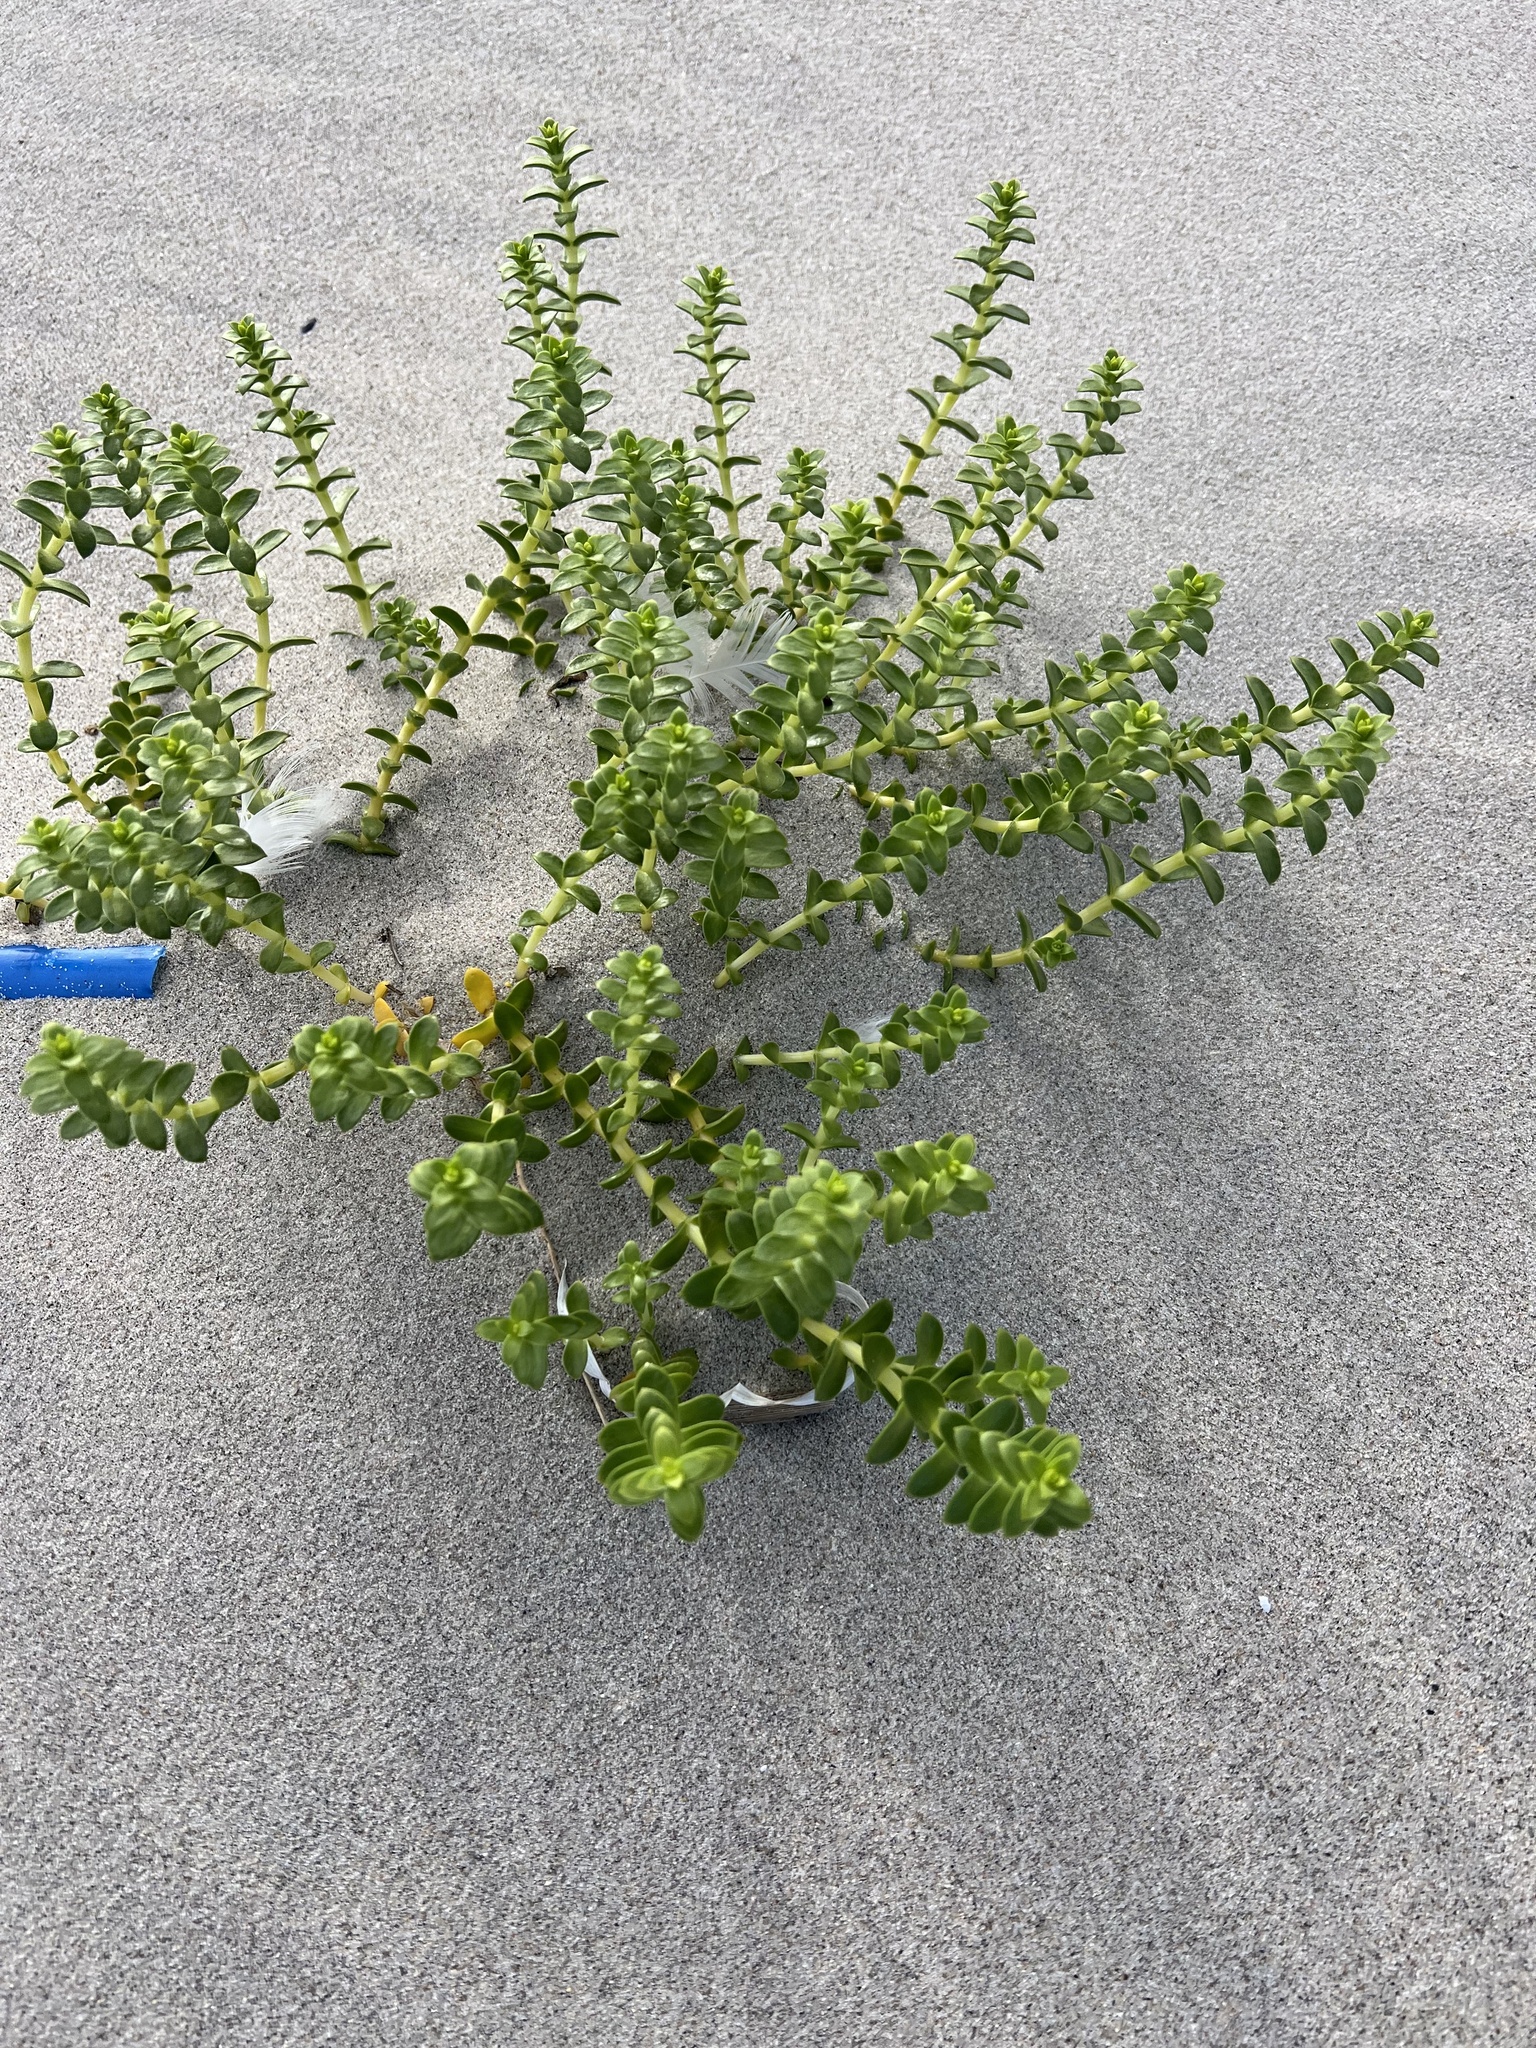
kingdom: Plantae
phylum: Tracheophyta
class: Magnoliopsida
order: Caryophyllales
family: Caryophyllaceae
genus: Honckenya
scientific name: Honckenya peploides
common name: Sea sandwort
